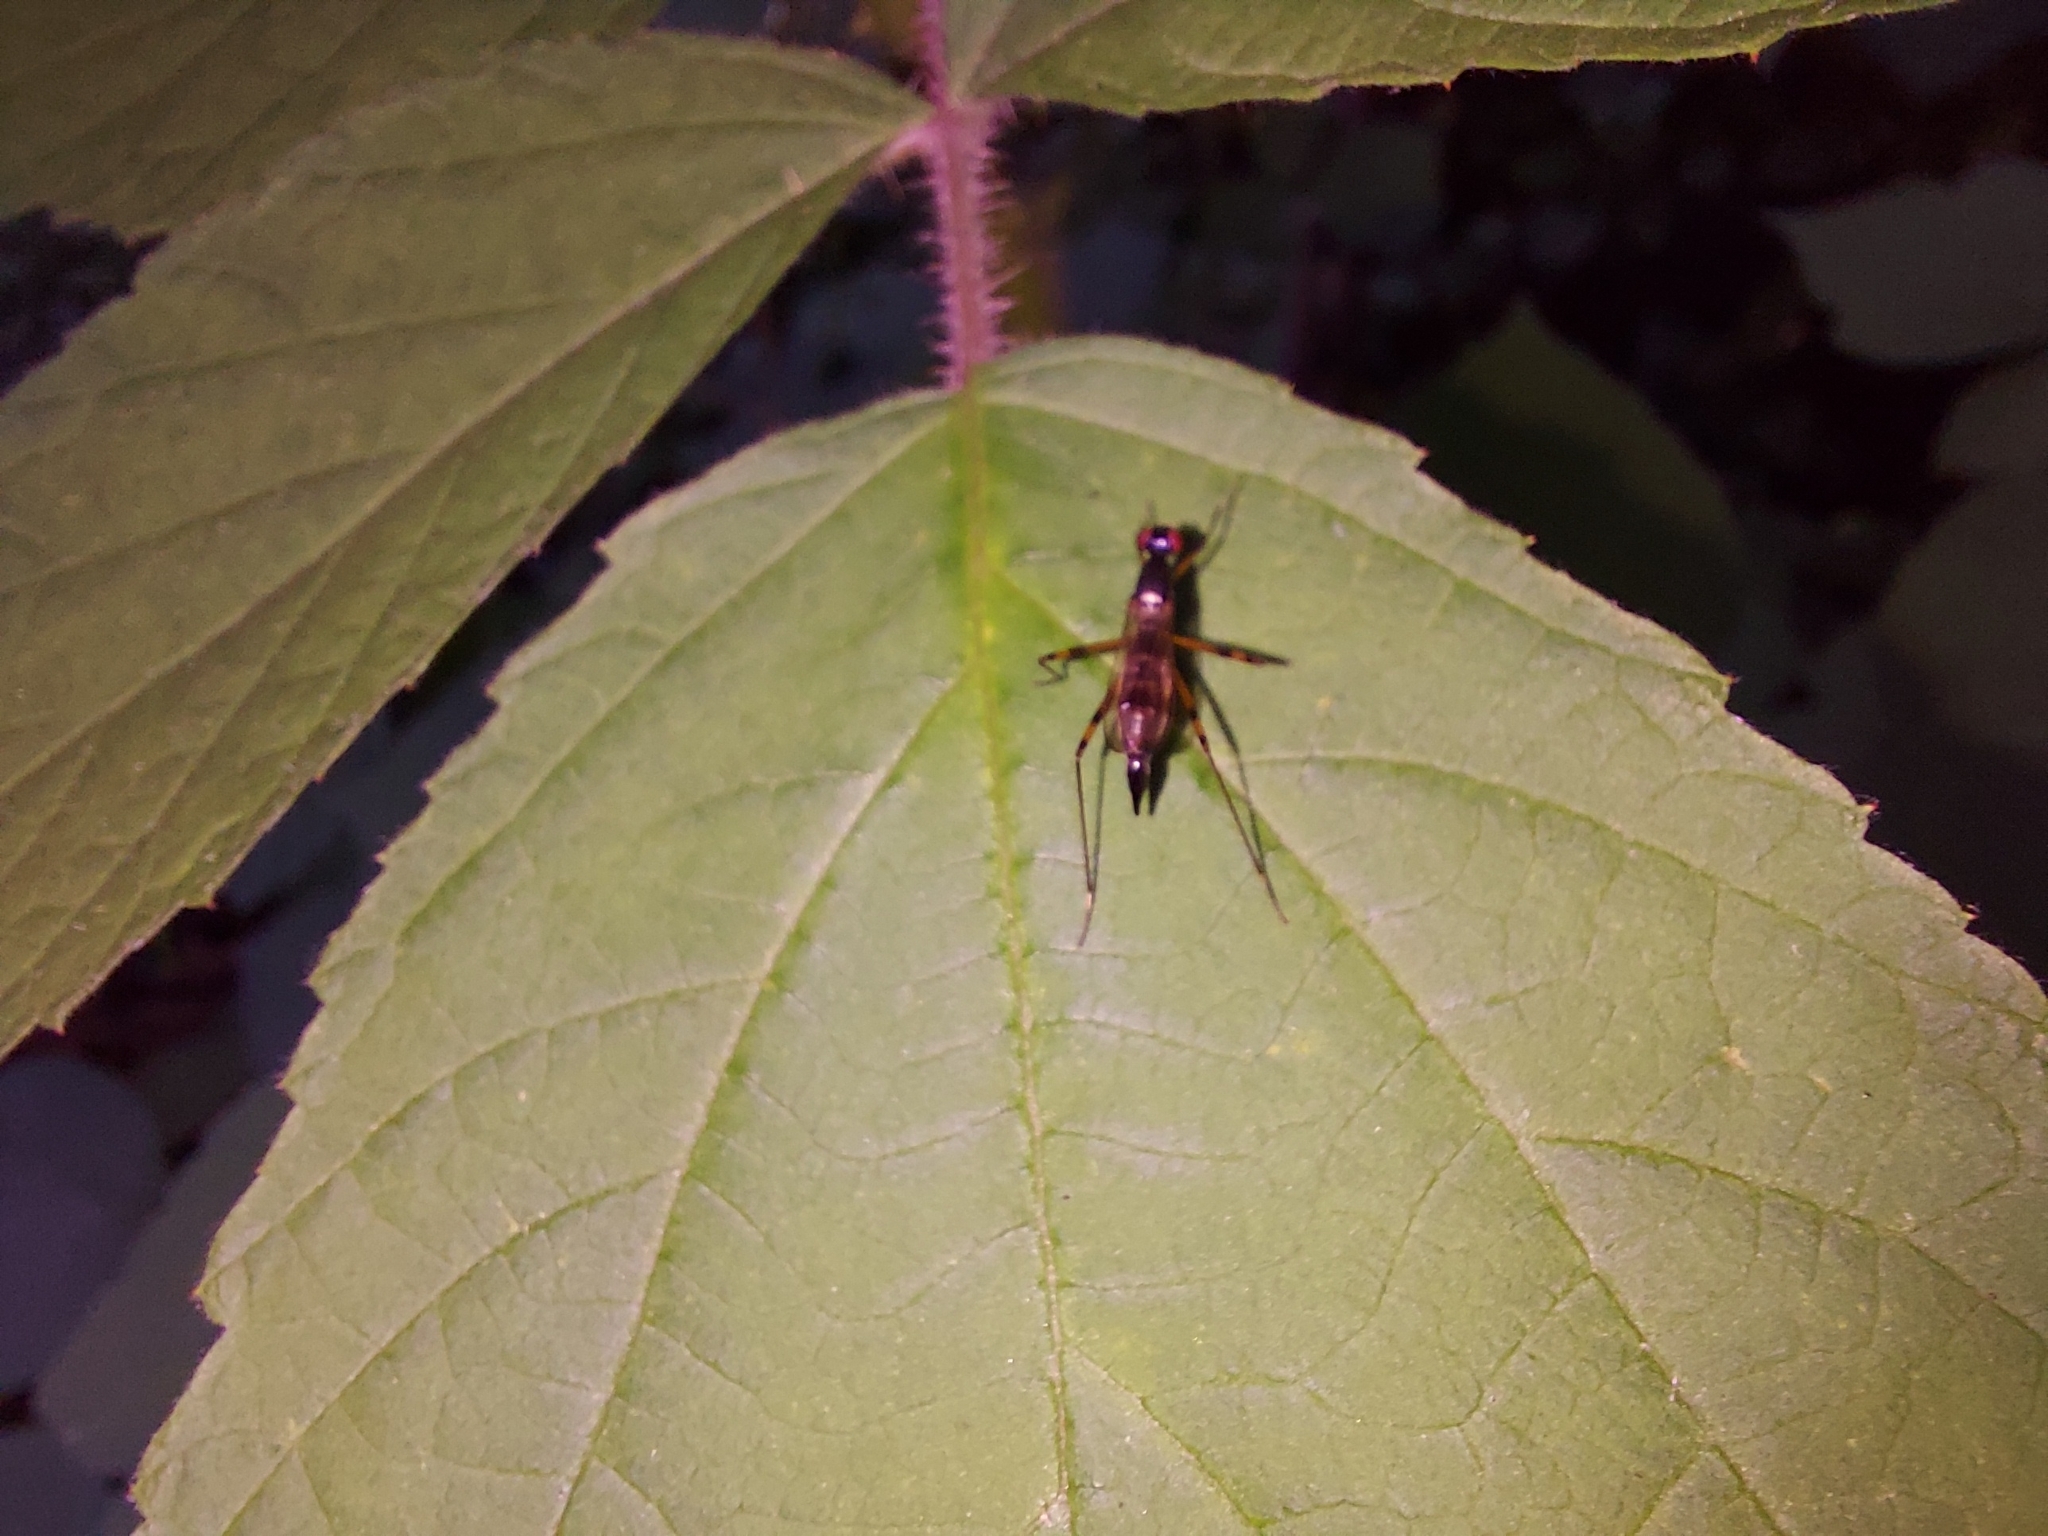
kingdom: Animalia
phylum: Arthropoda
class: Insecta
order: Diptera
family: Micropezidae
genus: Rainieria
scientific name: Rainieria antennaepes
